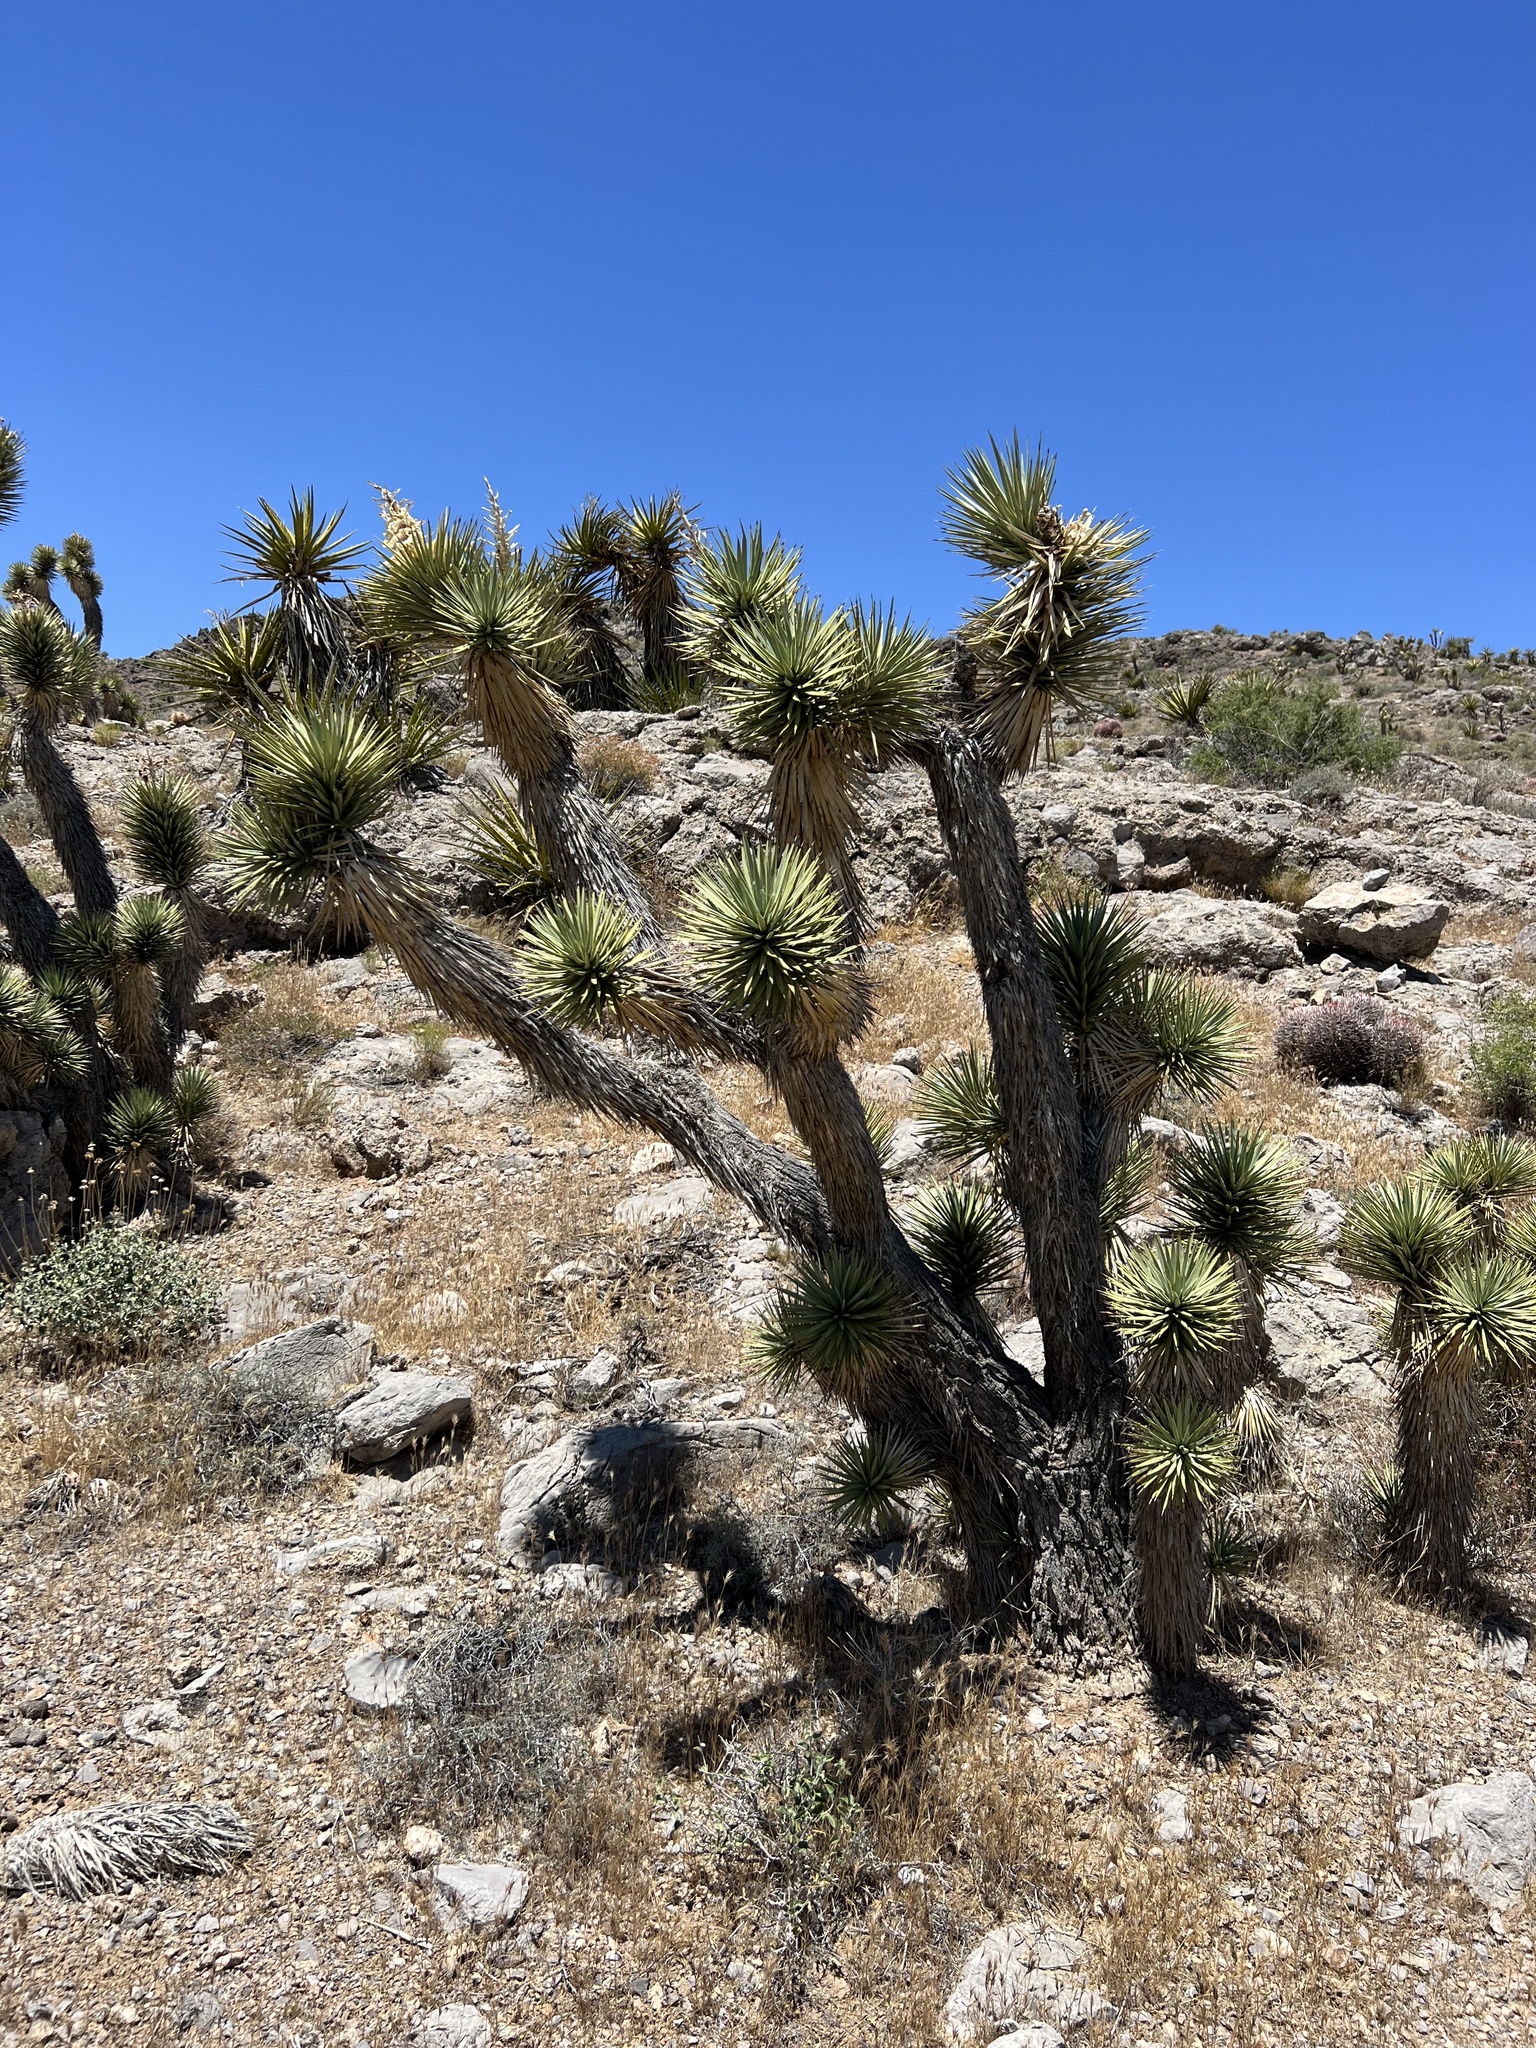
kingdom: Plantae
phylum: Tracheophyta
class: Liliopsida
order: Asparagales
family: Asparagaceae
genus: Yucca
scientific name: Yucca brevifolia
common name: Joshua tree
